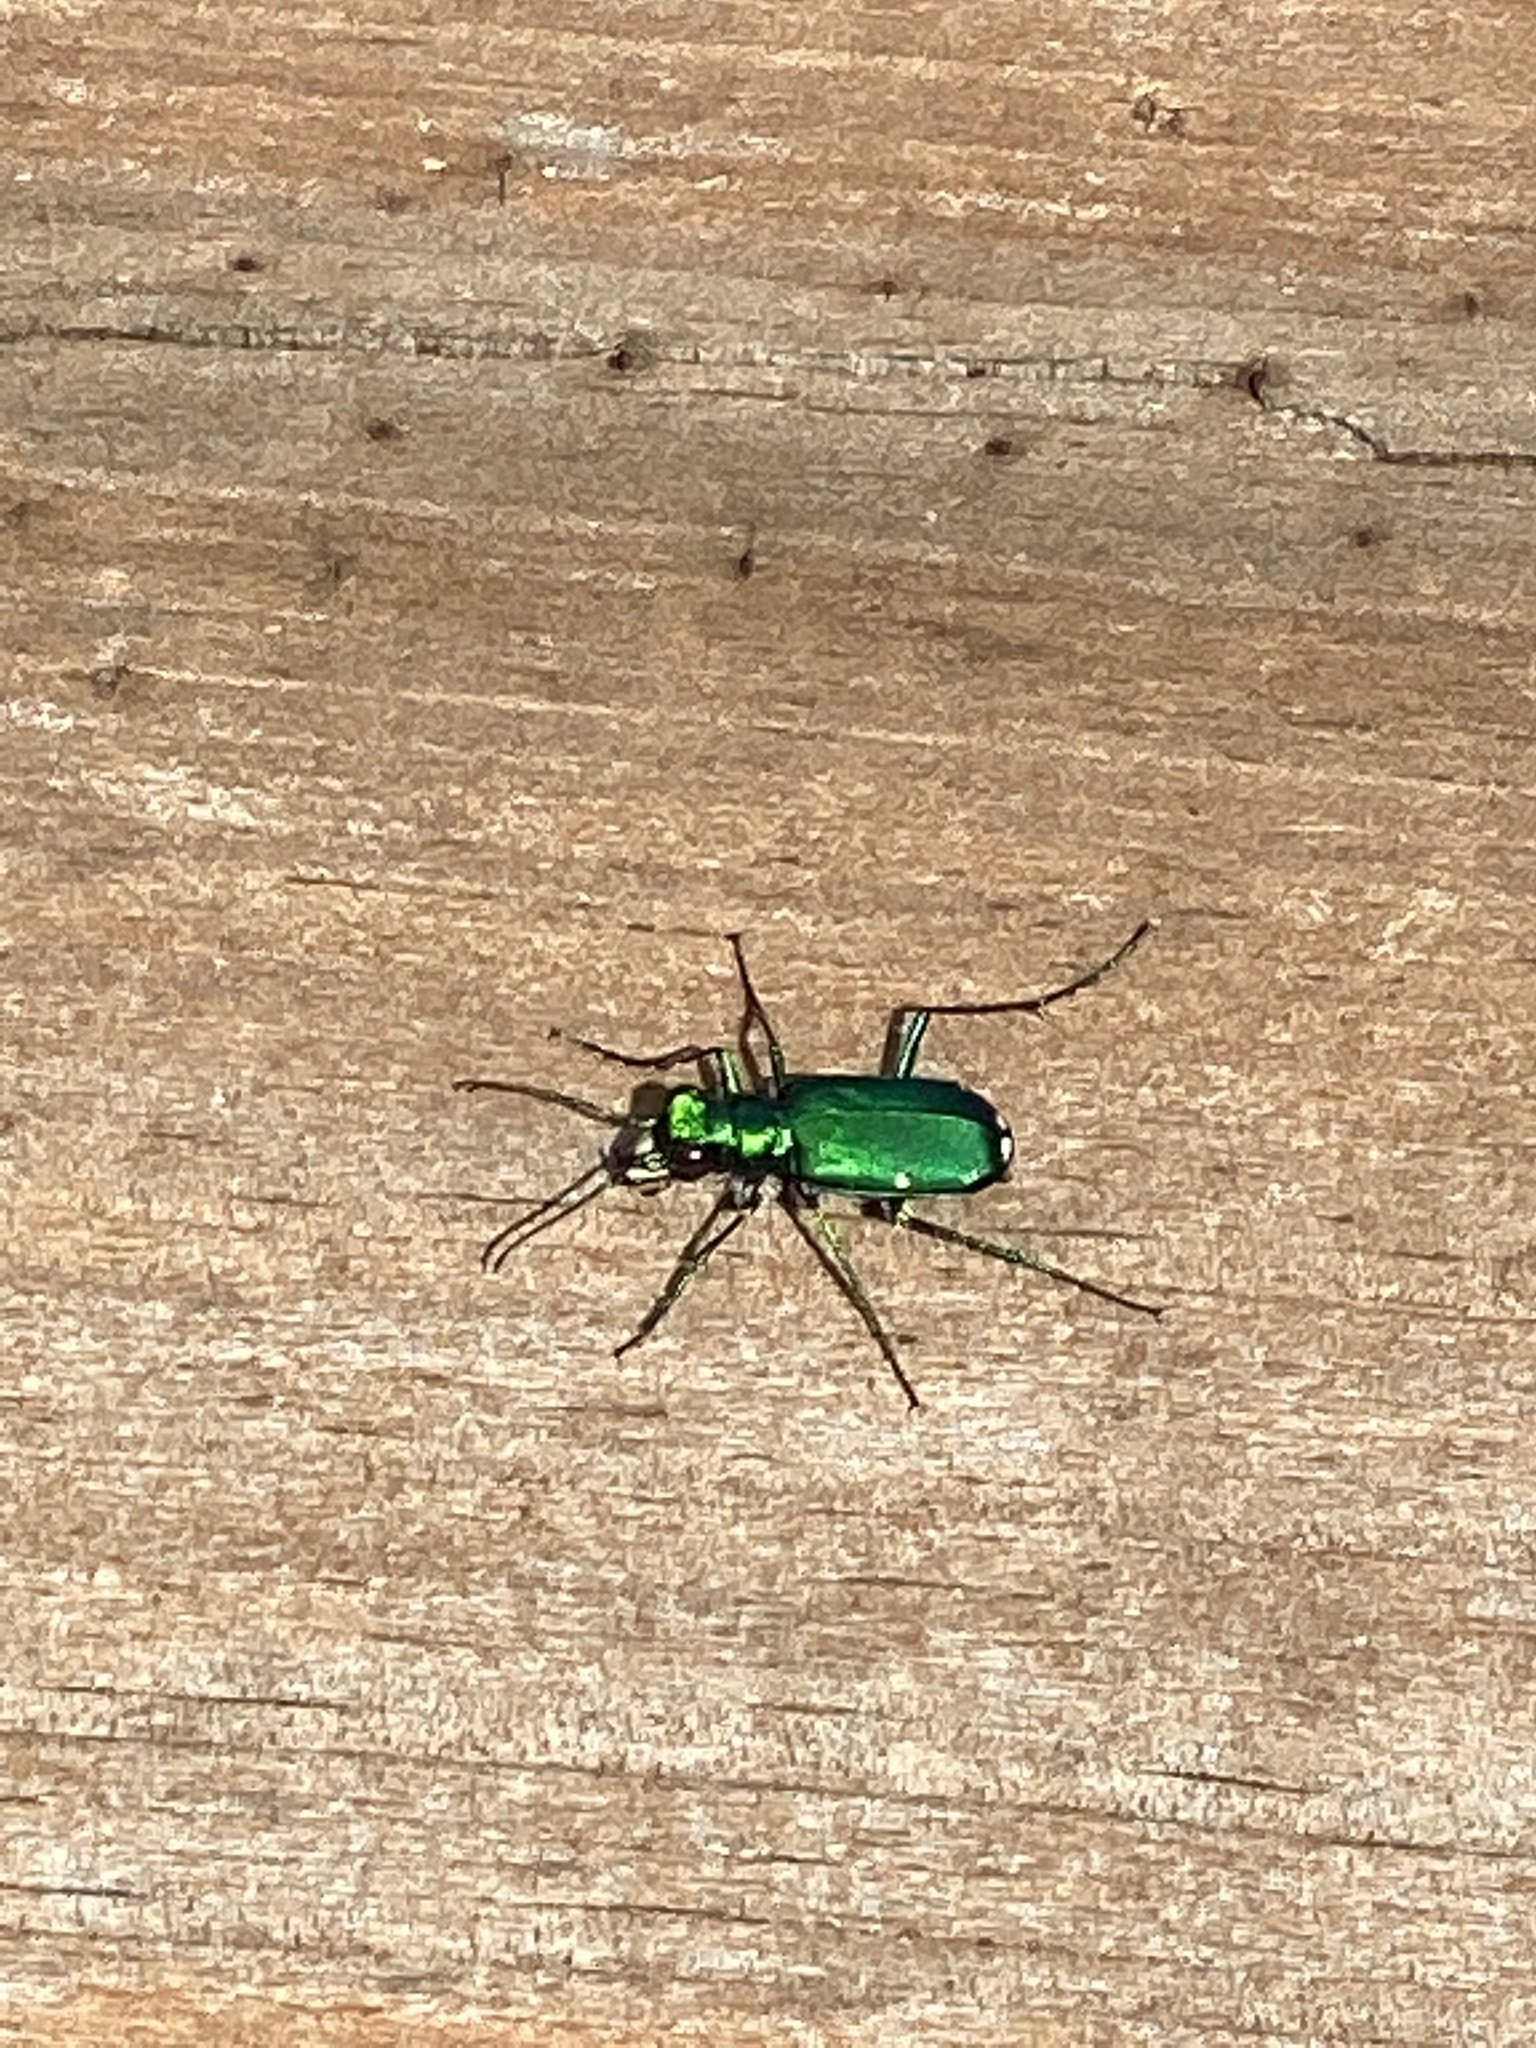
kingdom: Animalia
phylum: Arthropoda
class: Insecta
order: Coleoptera
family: Carabidae
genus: Cicindela
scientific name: Cicindela sexguttata
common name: Six-spotted tiger beetle
